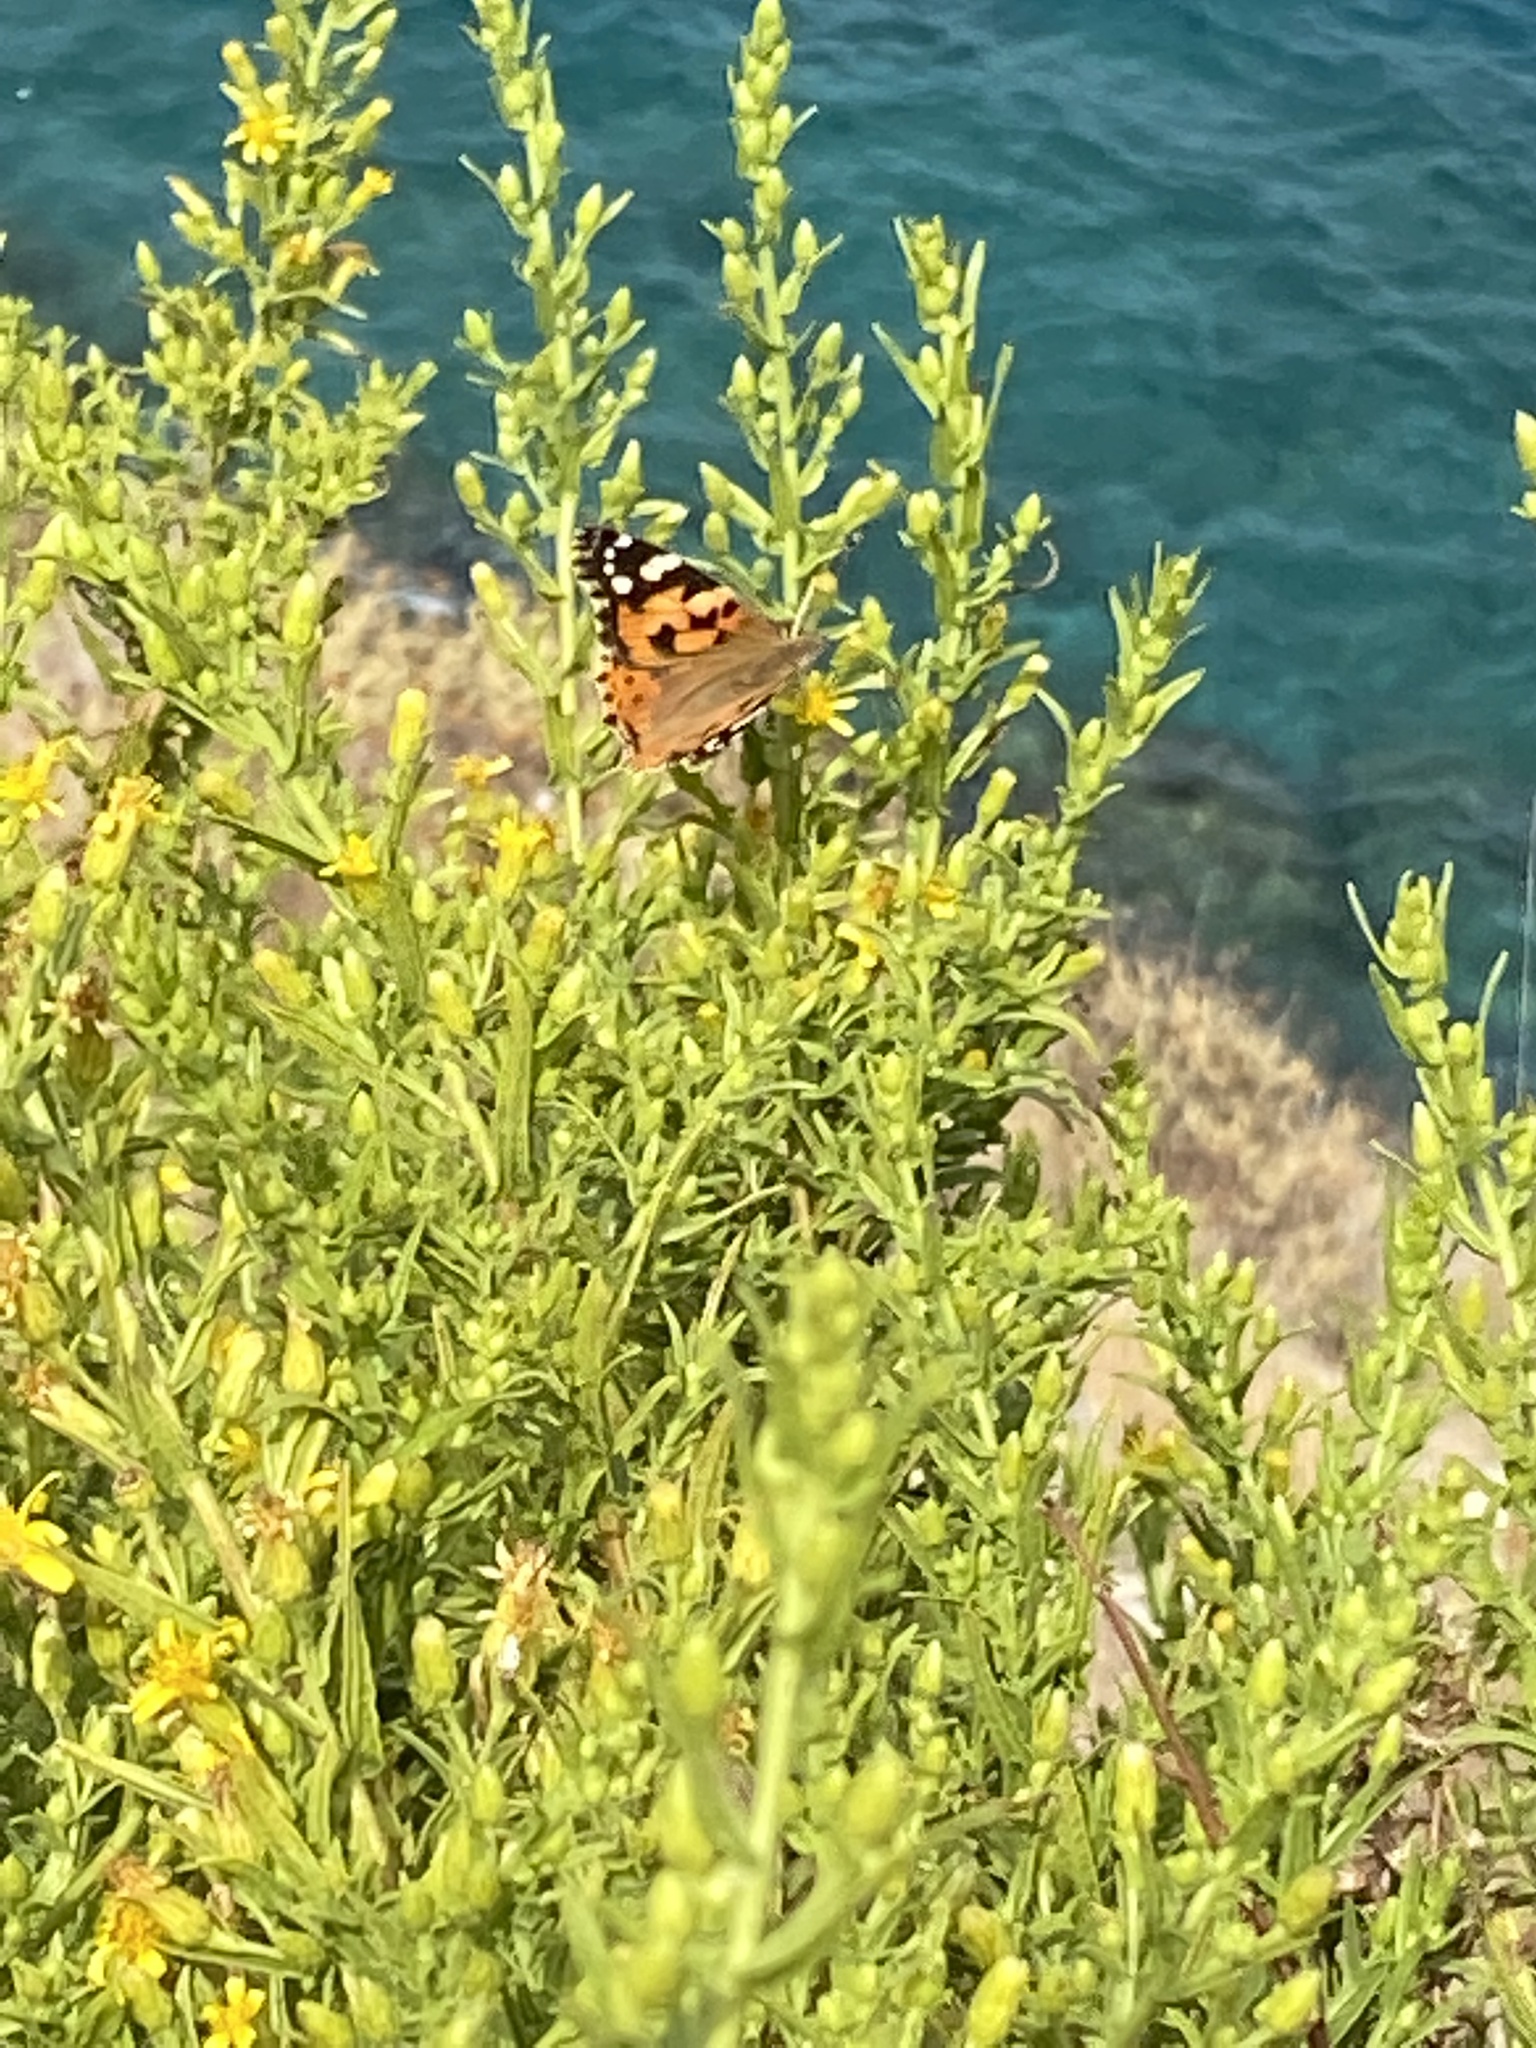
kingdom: Animalia
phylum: Arthropoda
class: Insecta
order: Lepidoptera
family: Nymphalidae
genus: Vanessa
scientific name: Vanessa cardui
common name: Painted lady
